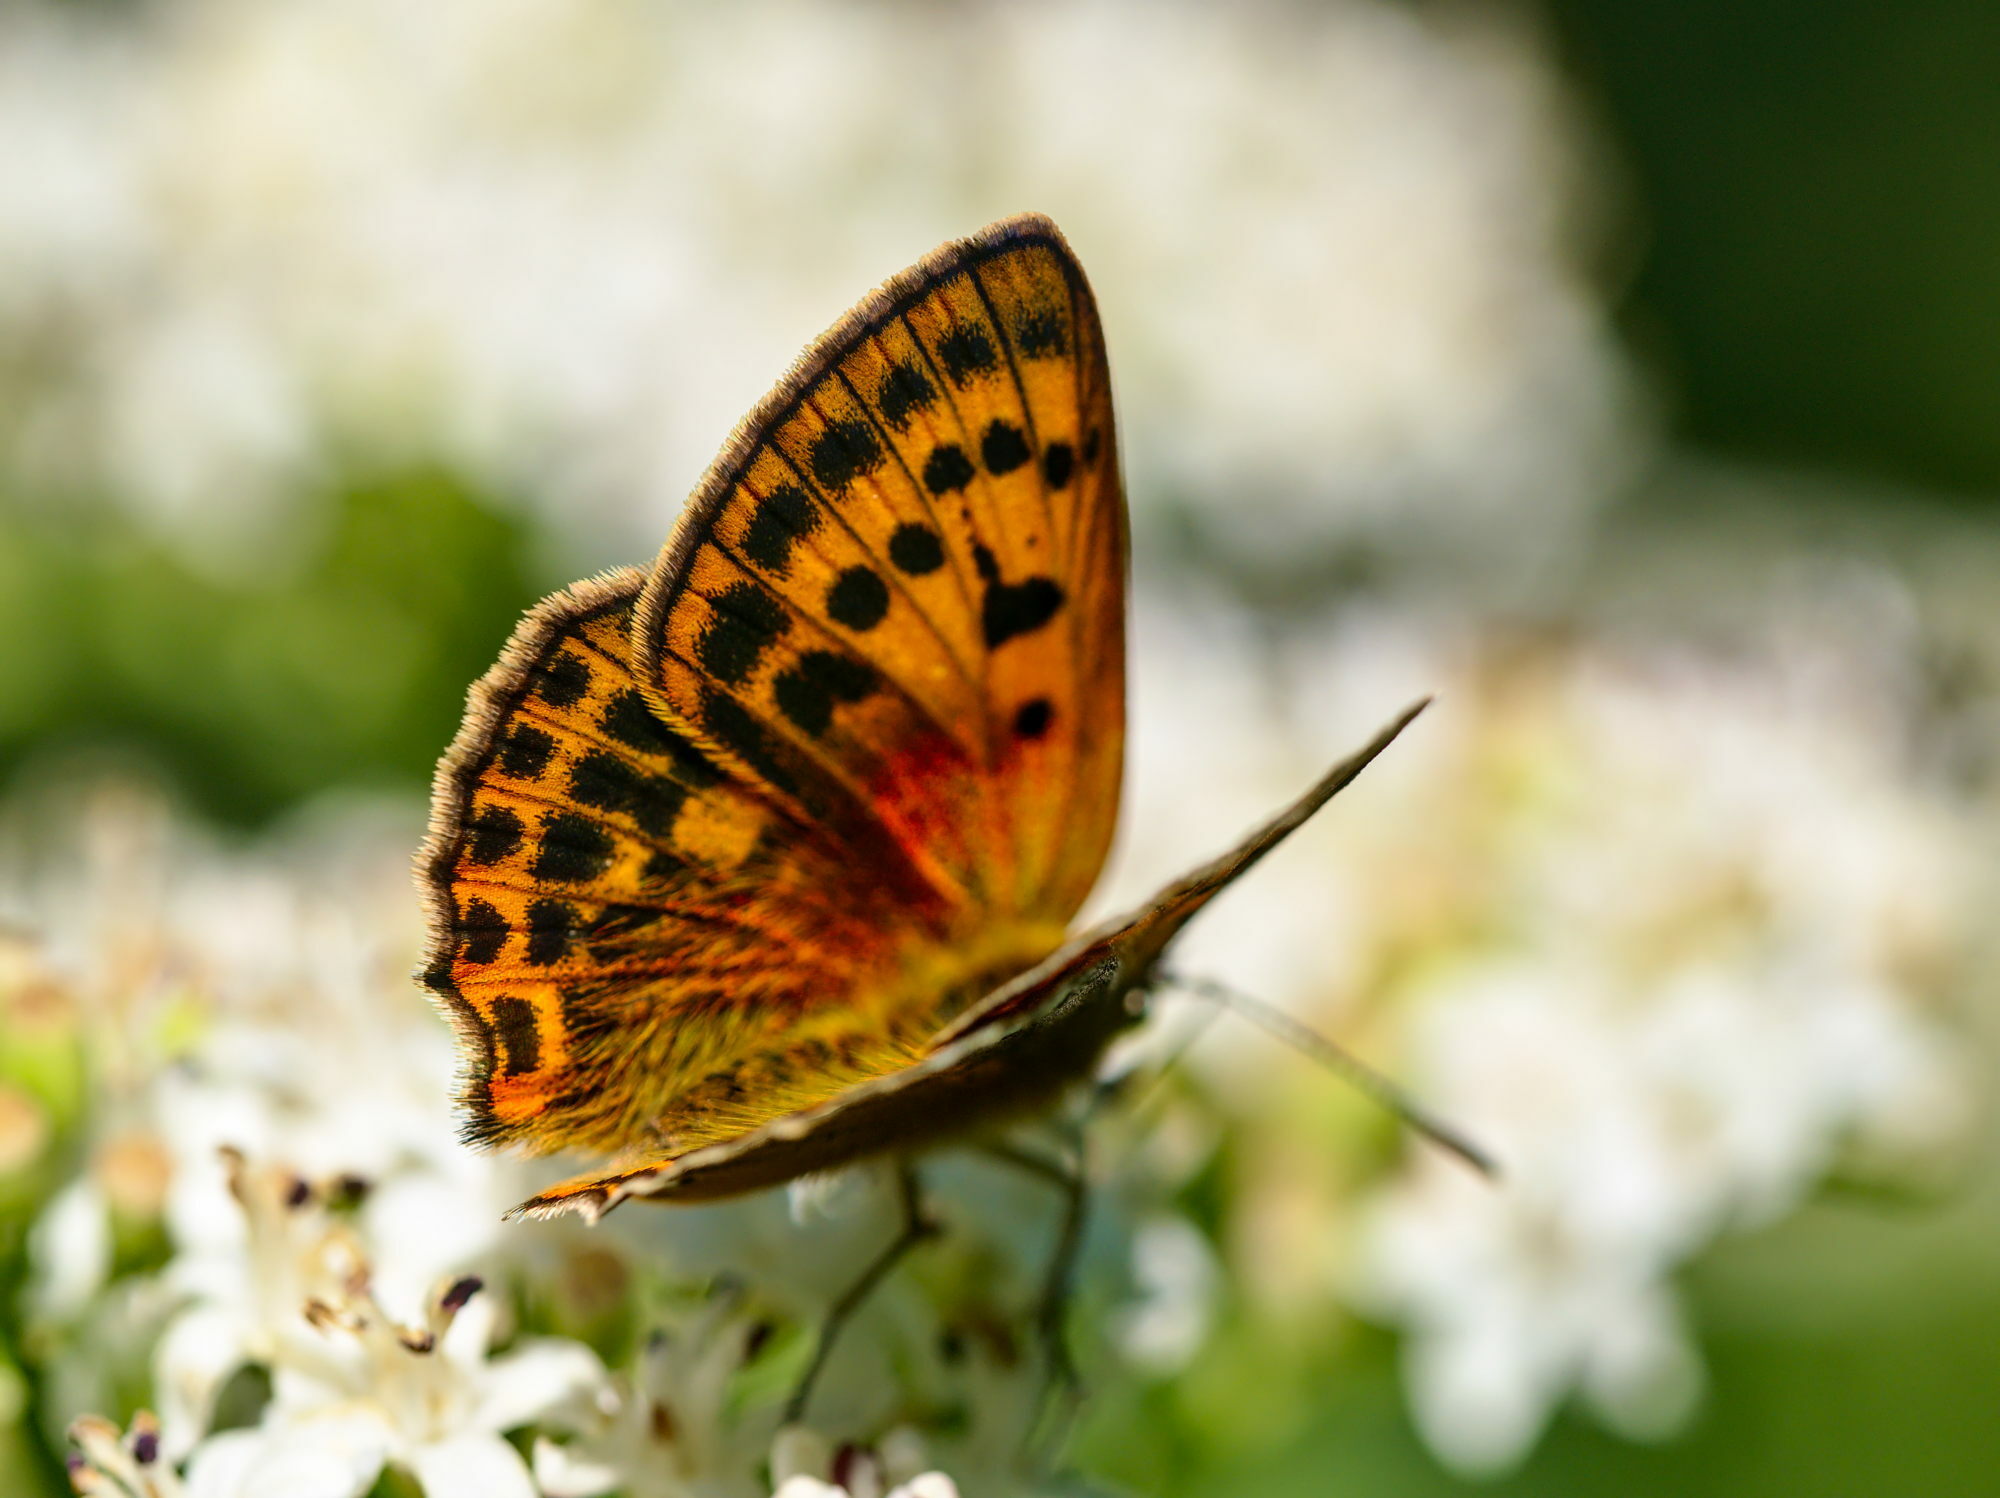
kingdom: Animalia
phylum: Arthropoda
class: Insecta
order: Lepidoptera
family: Lycaenidae
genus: Lycaena
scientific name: Lycaena virgaureae
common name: Scarce copper
